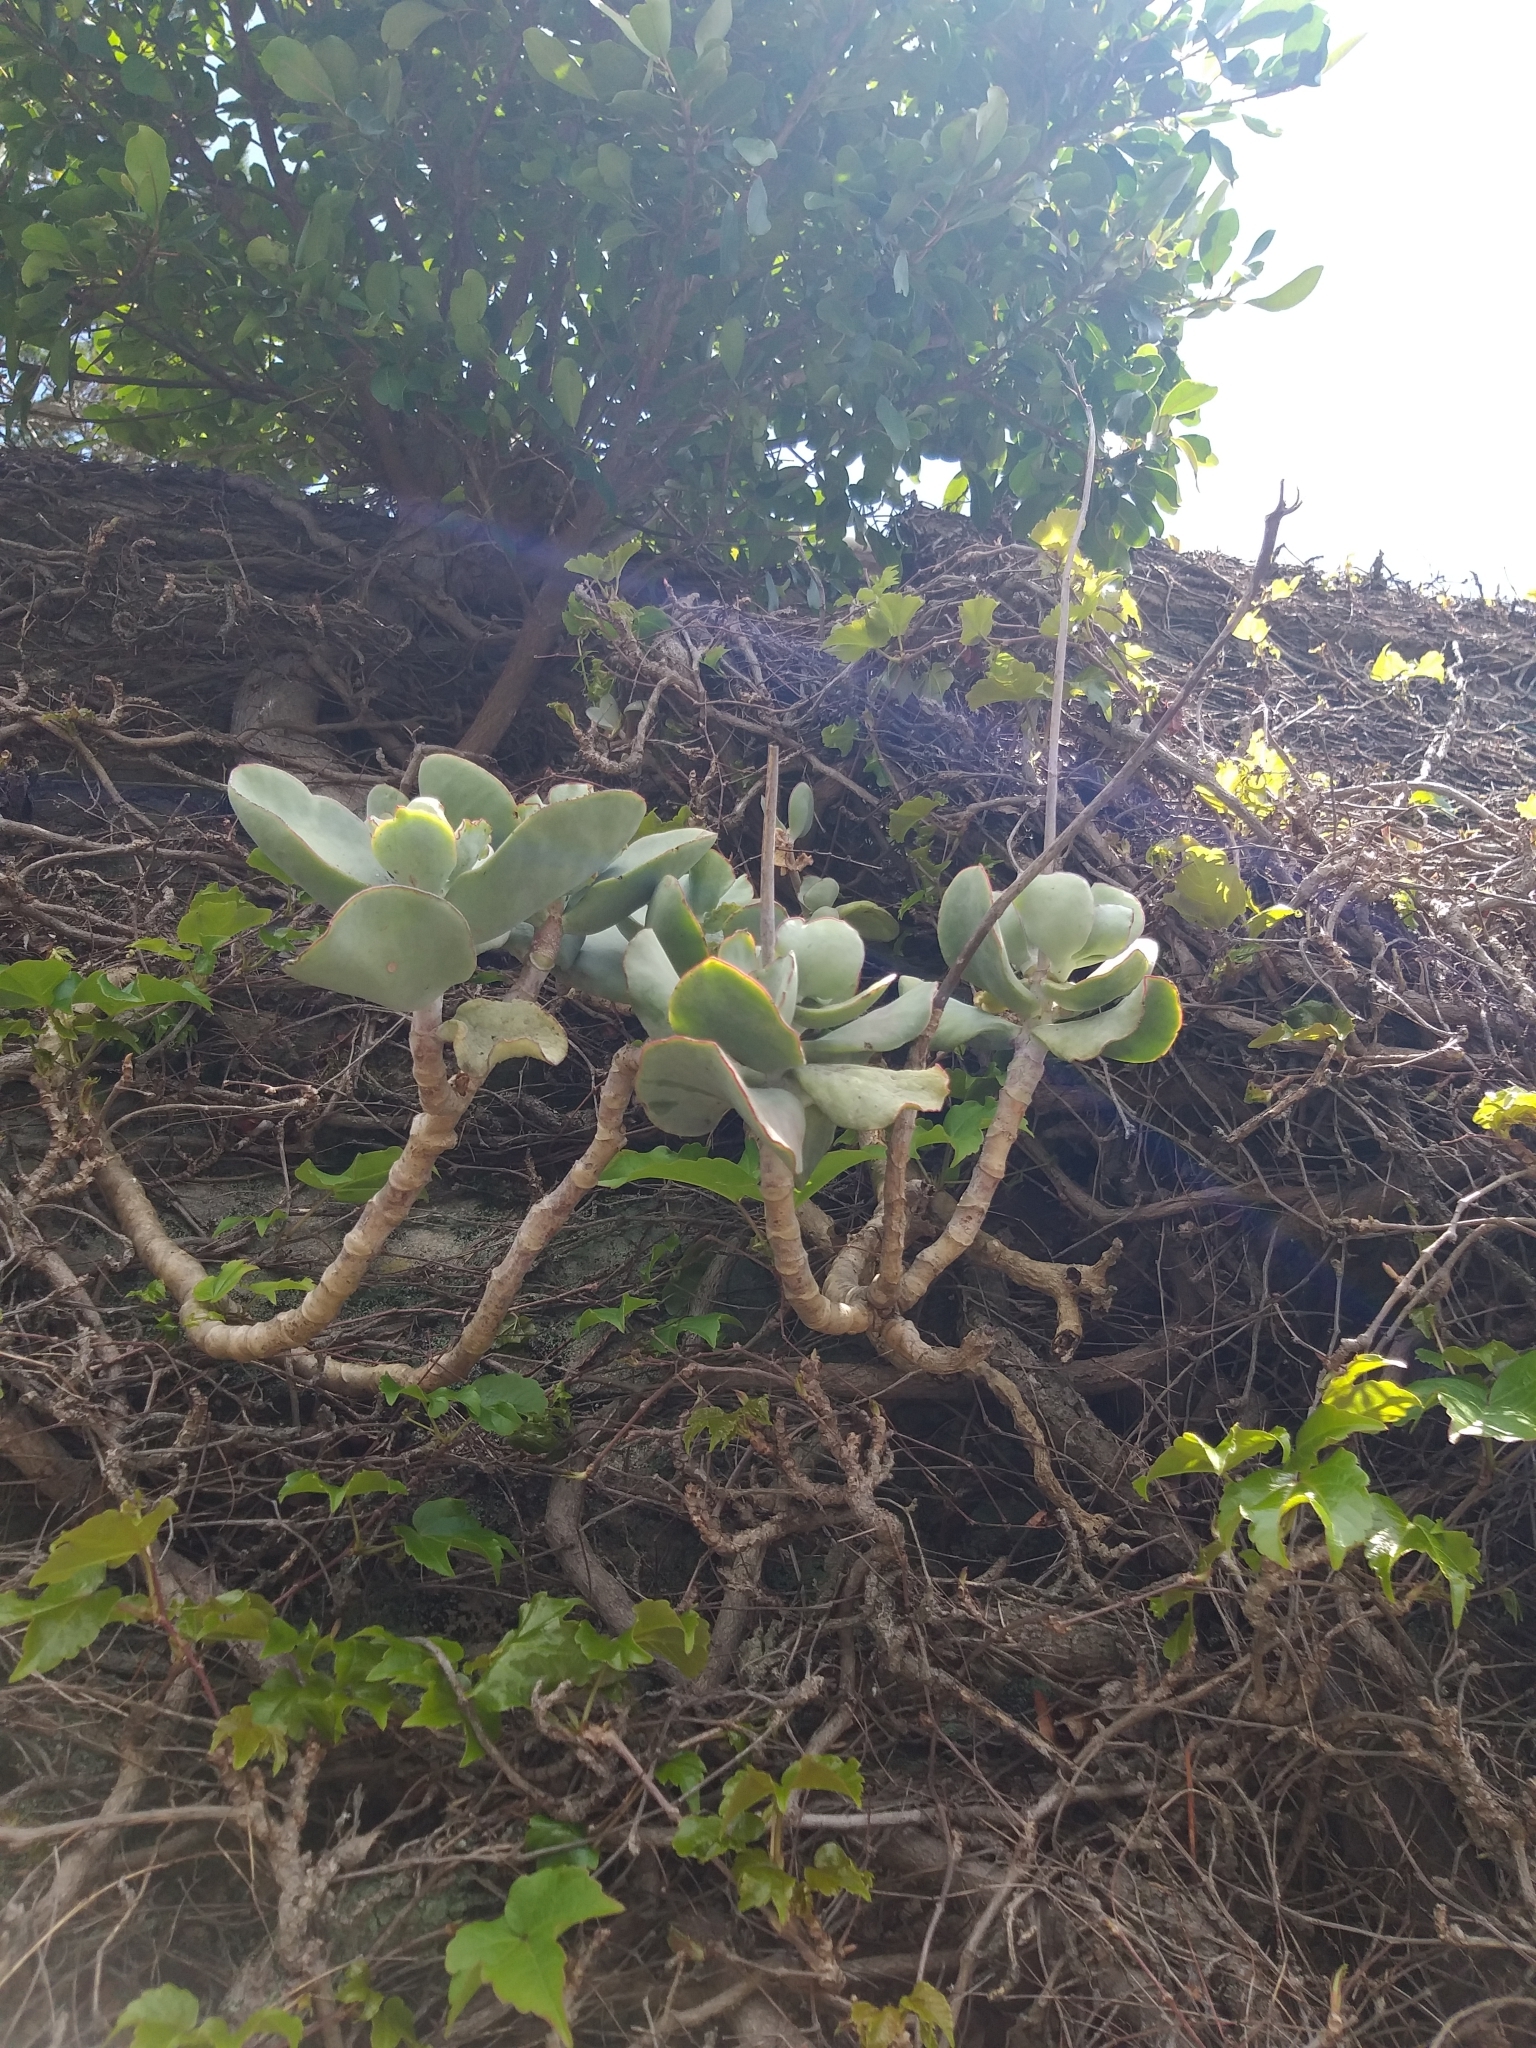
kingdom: Plantae
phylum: Tracheophyta
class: Magnoliopsida
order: Saxifragales
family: Crassulaceae
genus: Cotyledon
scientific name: Cotyledon orbiculata
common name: Pig's ear
